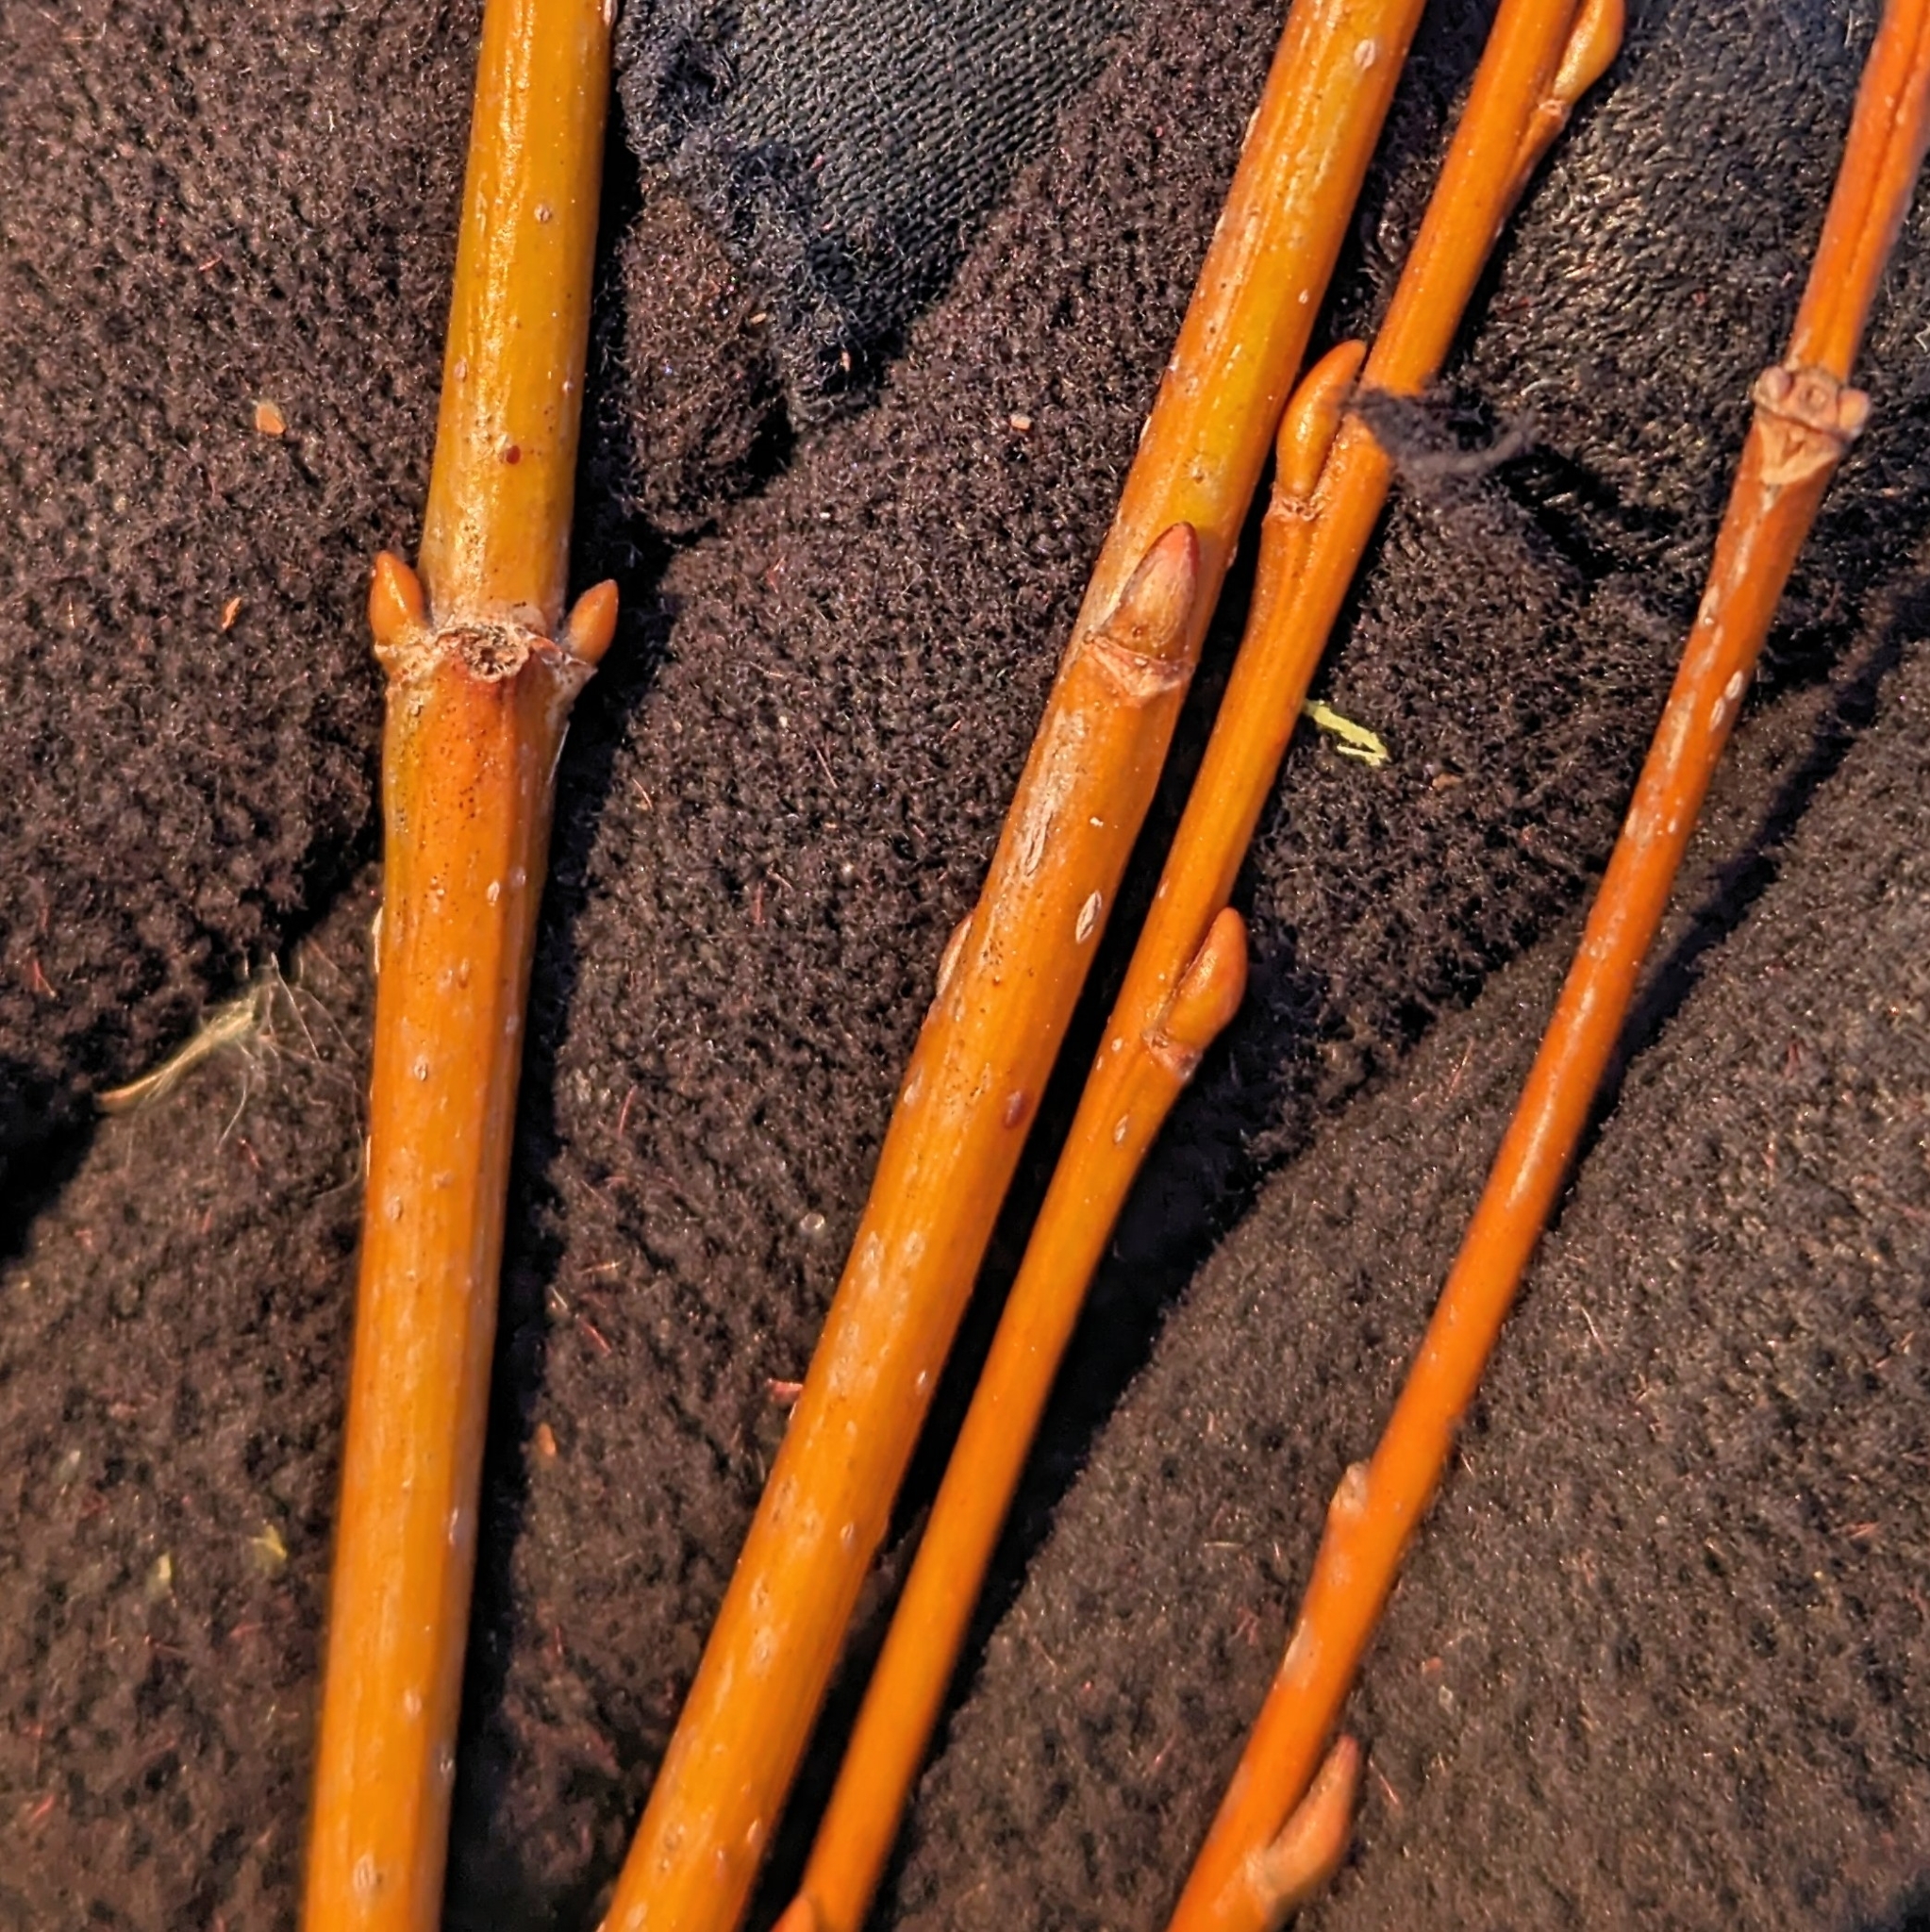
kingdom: Plantae
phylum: Tracheophyta
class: Magnoliopsida
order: Malpighiales
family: Salicaceae
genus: Salix
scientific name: Salix
